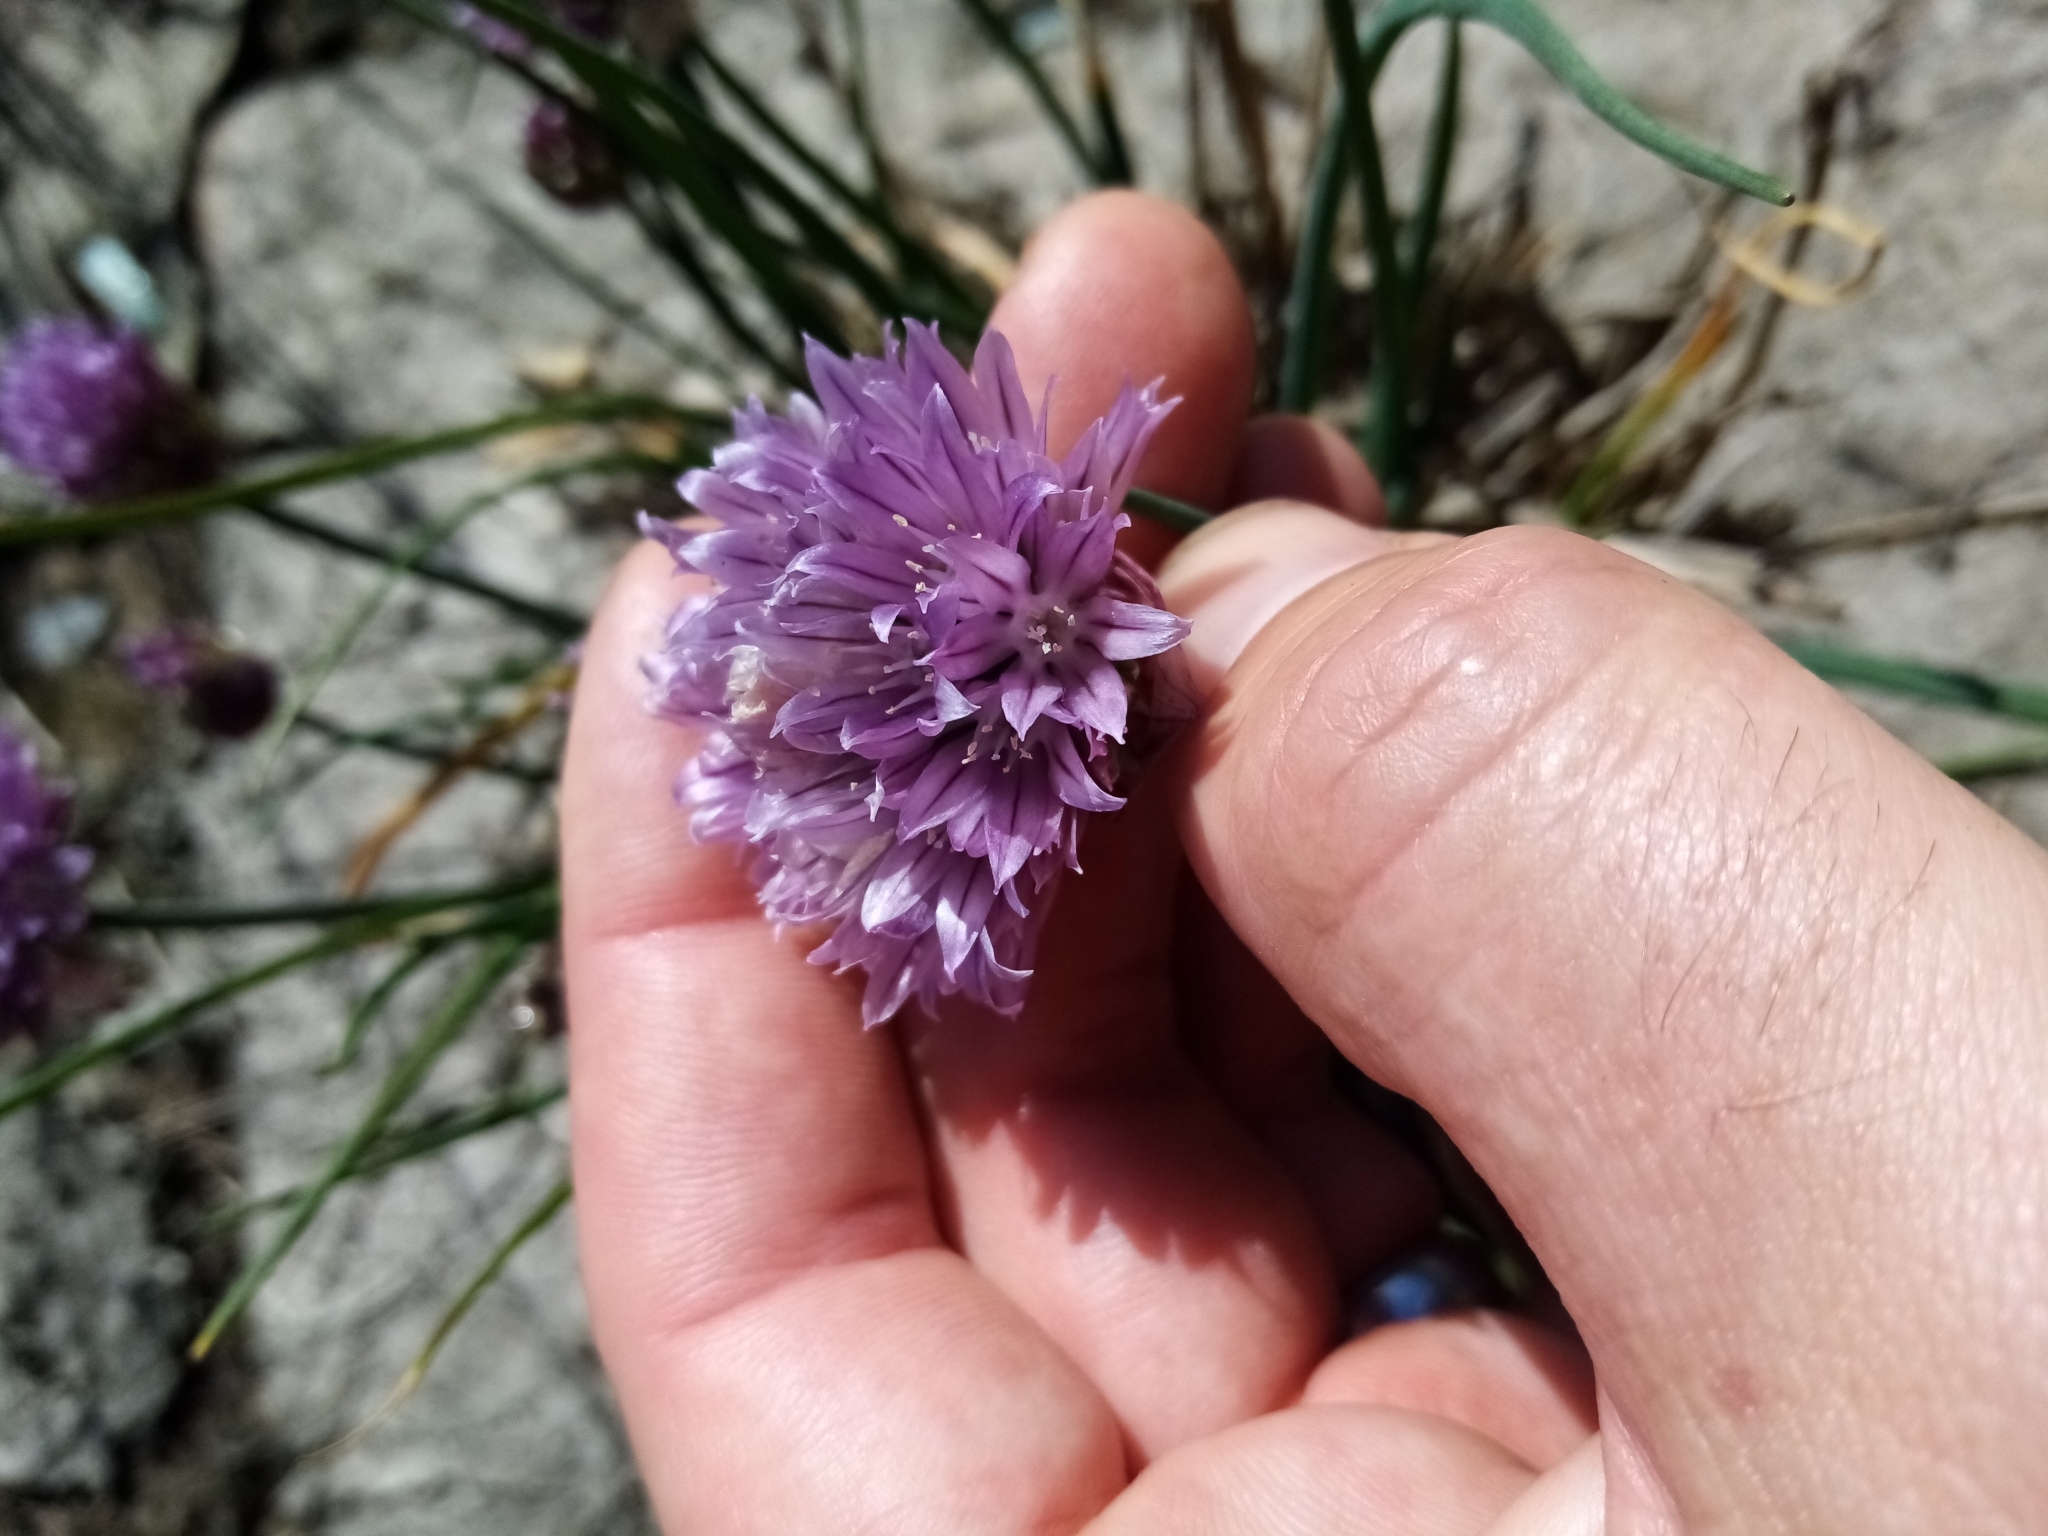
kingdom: Plantae
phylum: Tracheophyta
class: Liliopsida
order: Asparagales
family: Amaryllidaceae
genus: Allium
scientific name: Allium schoenoprasum
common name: Chives
